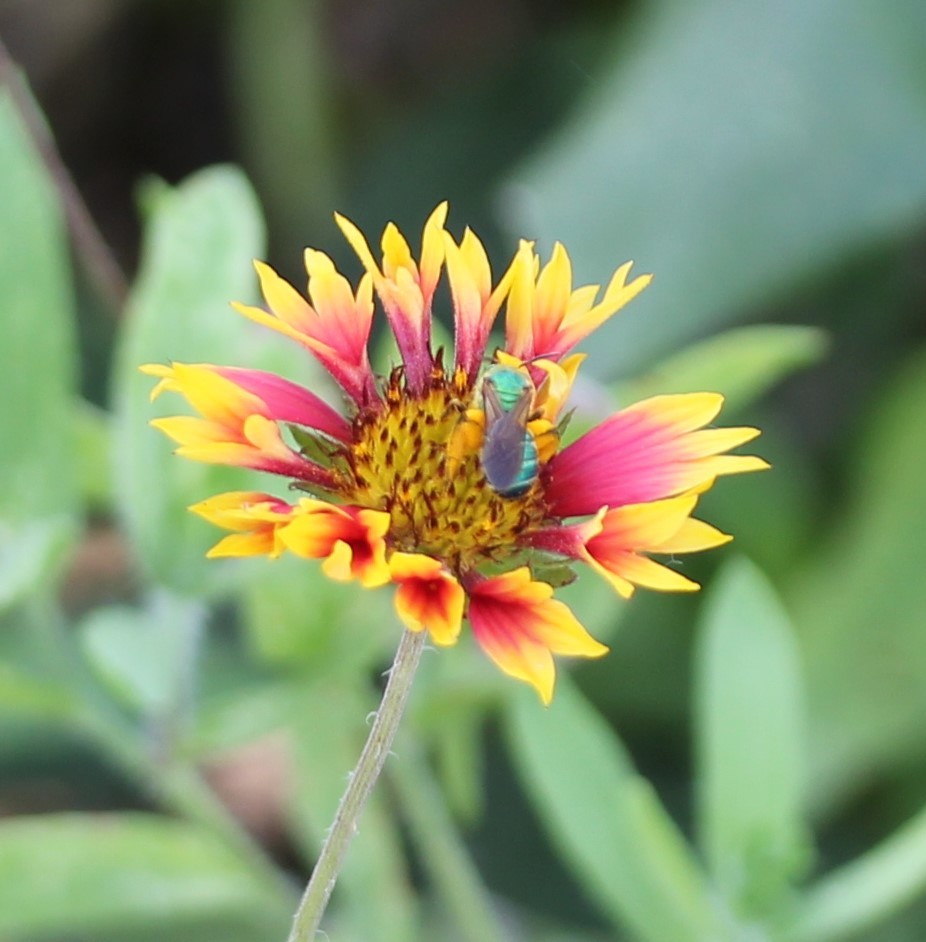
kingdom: Plantae
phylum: Tracheophyta
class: Magnoliopsida
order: Asterales
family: Asteraceae
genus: Gaillardia
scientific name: Gaillardia pulchella
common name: Firewheel
